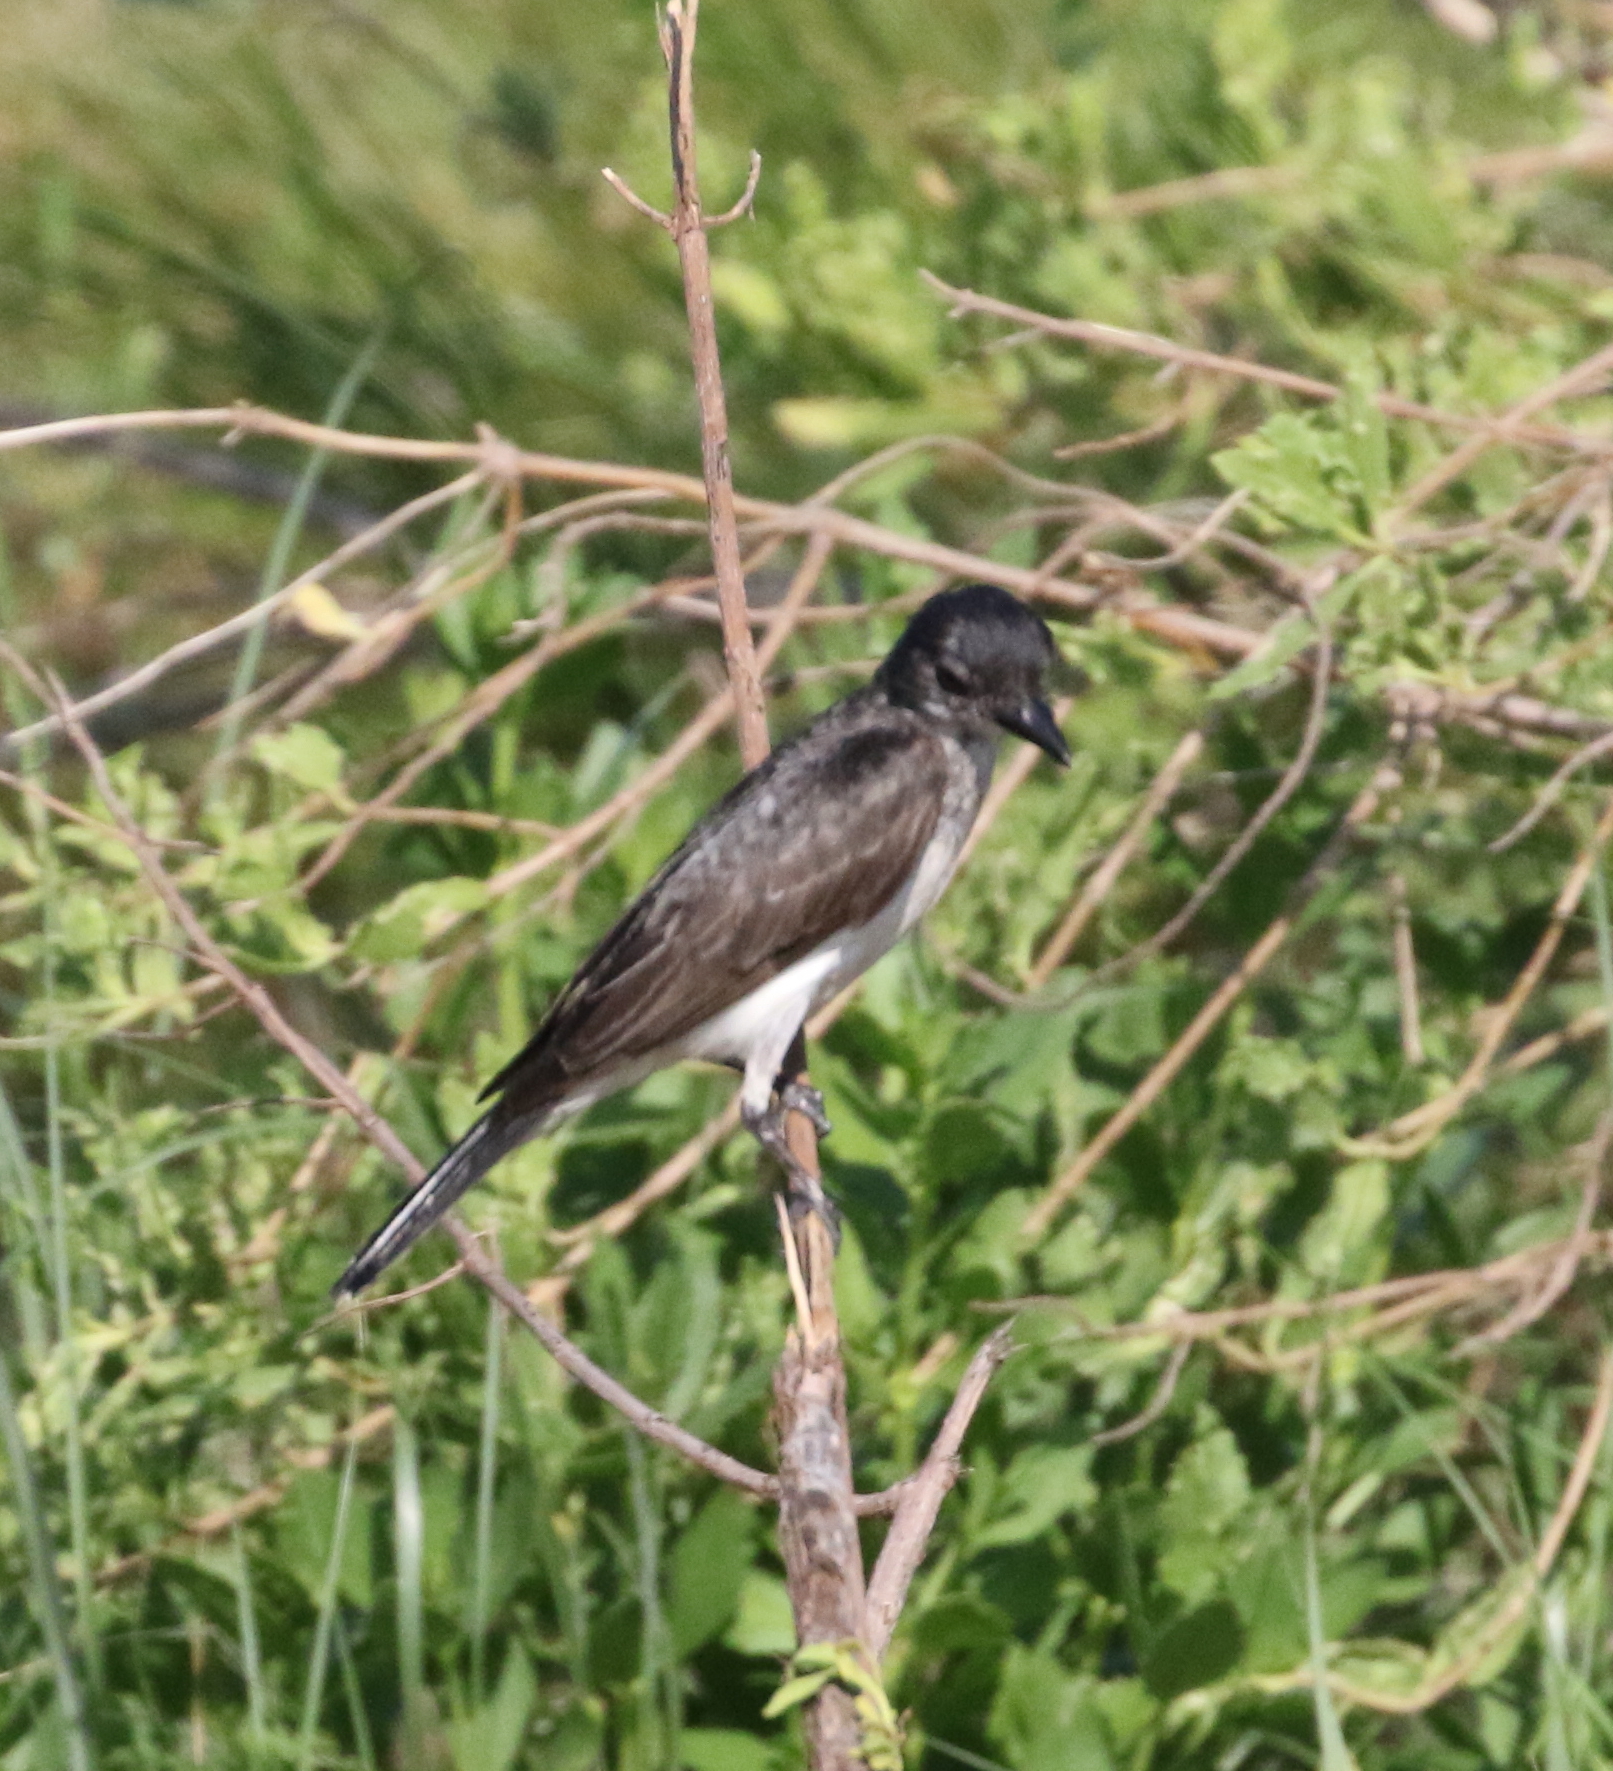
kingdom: Animalia
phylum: Chordata
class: Aves
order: Passeriformes
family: Tyrannidae
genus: Tyrannus
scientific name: Tyrannus tyrannus
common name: Eastern kingbird
